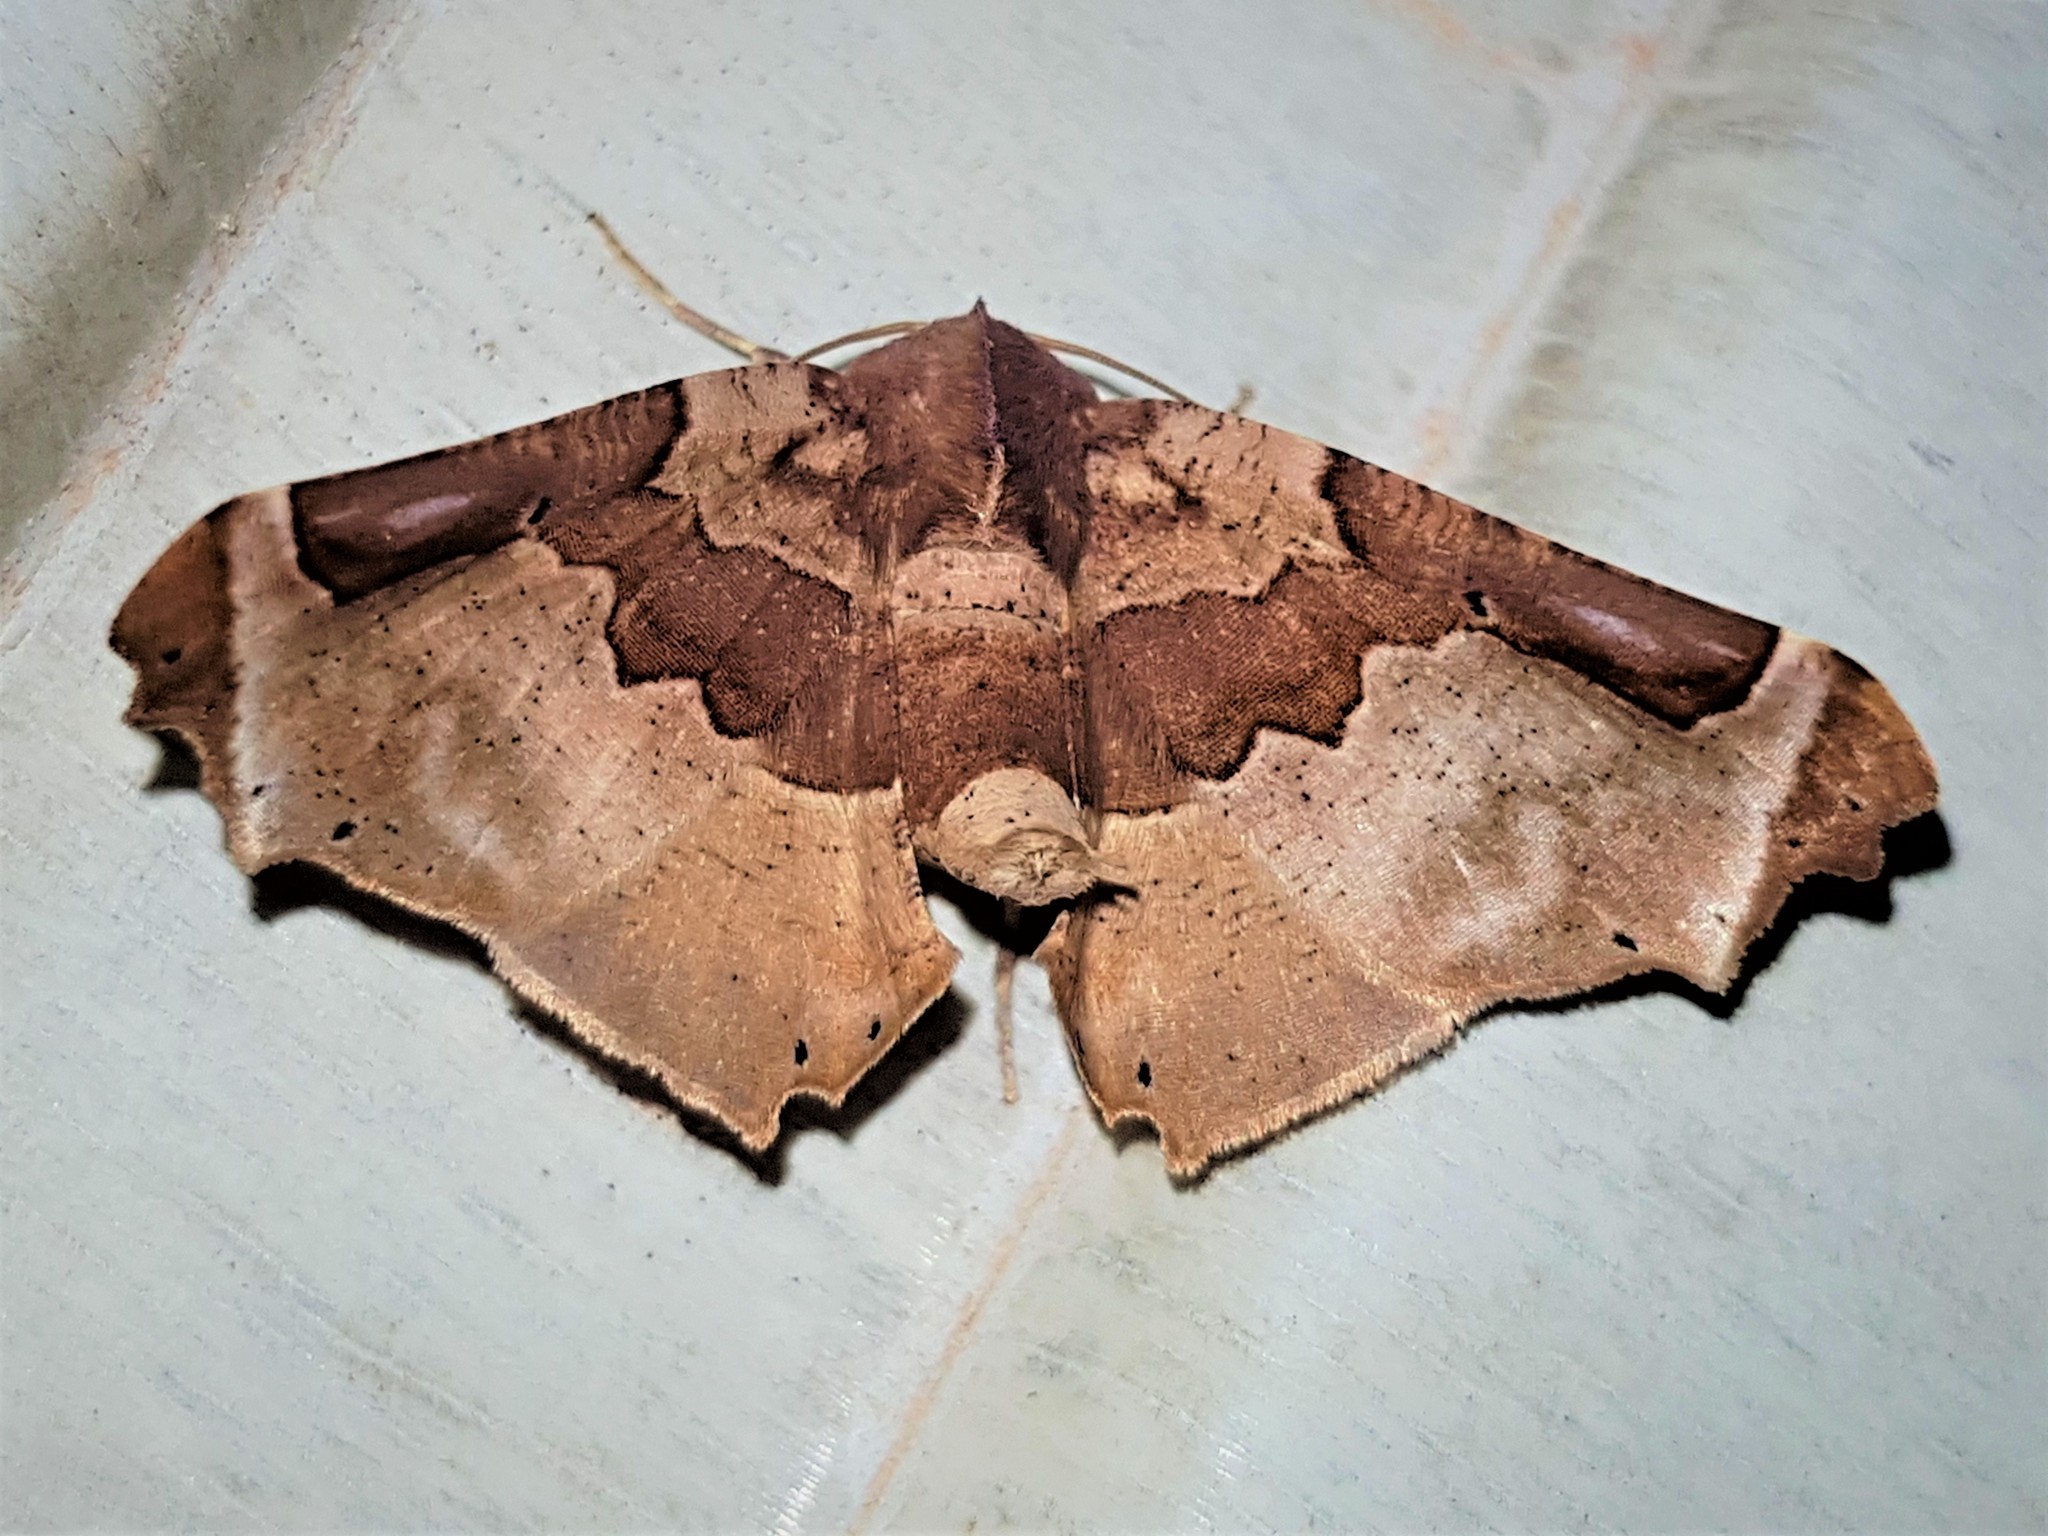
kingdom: Animalia
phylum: Arthropoda
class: Insecta
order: Lepidoptera
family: Geometridae
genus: Pero
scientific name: Pero constrictifascia
